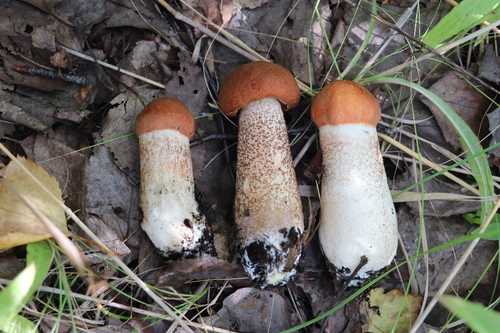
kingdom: Fungi
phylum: Basidiomycota
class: Agaricomycetes
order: Boletales
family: Boletaceae
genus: Leccinum
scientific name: Leccinum aurantiacum
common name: Orange bolete
